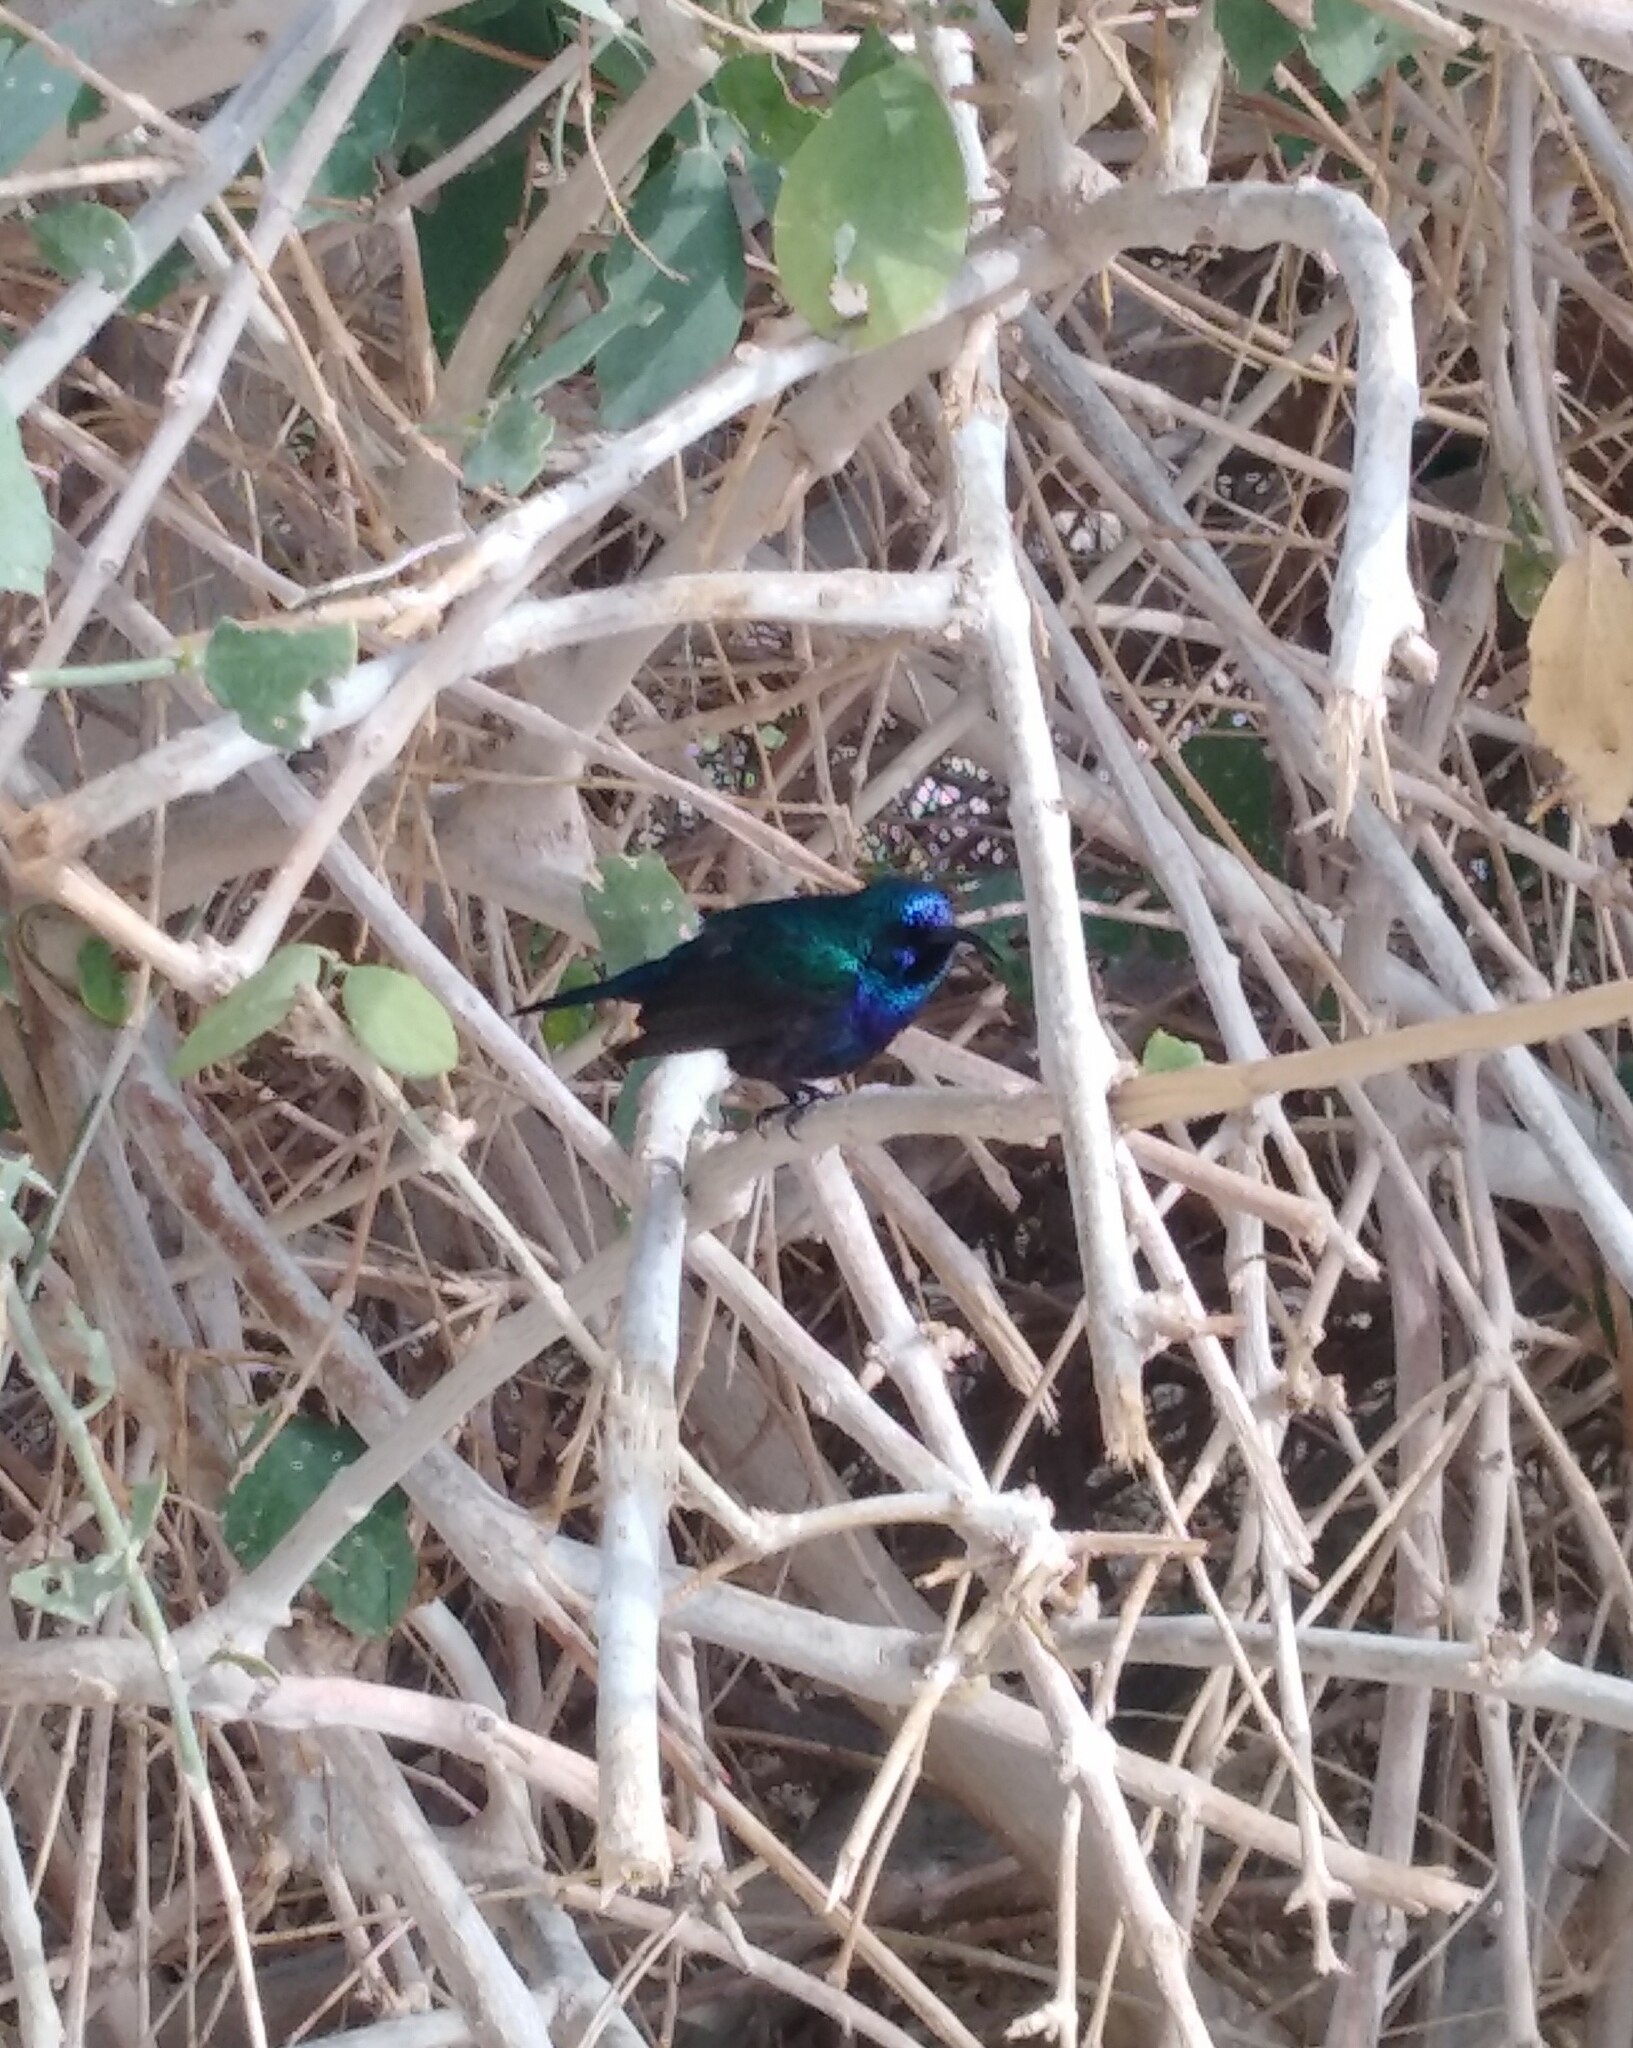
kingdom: Animalia
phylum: Chordata
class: Aves
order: Passeriformes
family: Nectariniidae
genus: Cinnyris
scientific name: Cinnyris osea
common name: Palestine sunbird
